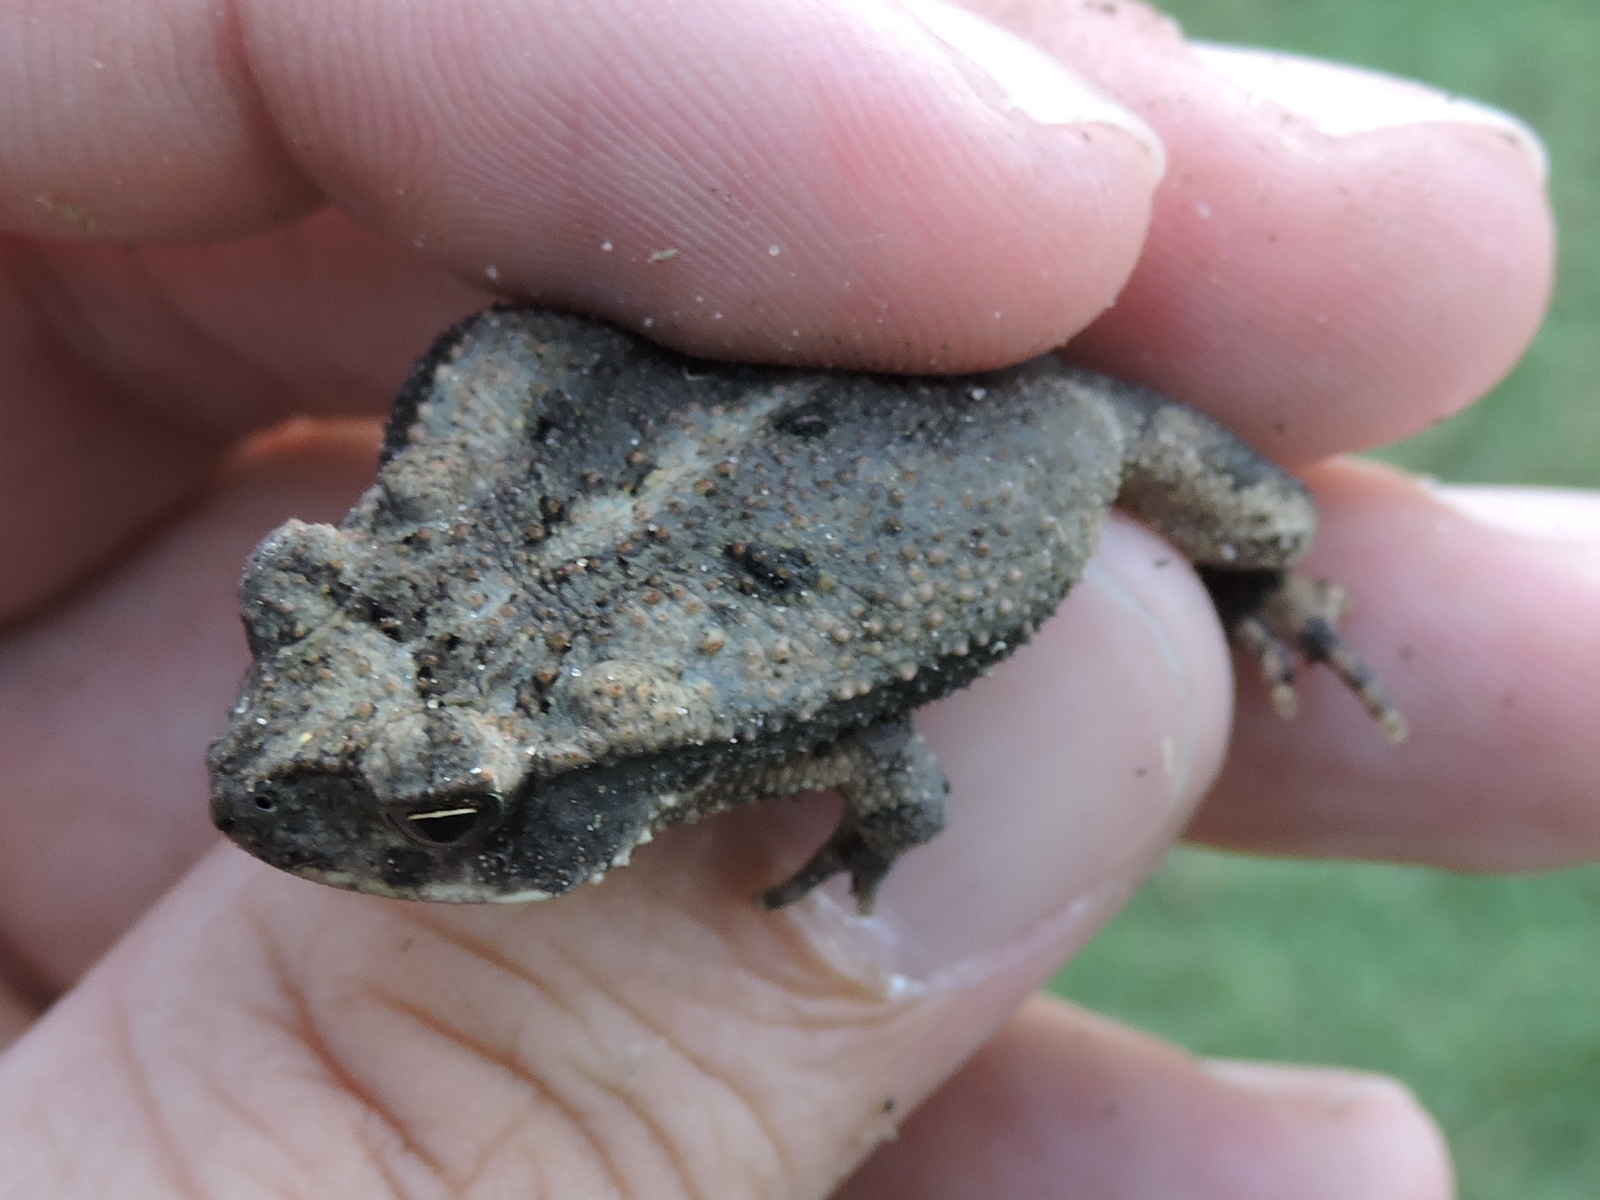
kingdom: Animalia
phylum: Chordata
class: Amphibia
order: Anura
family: Bufonidae
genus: Incilius
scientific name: Incilius nebulifer
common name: Gulf coast toad
